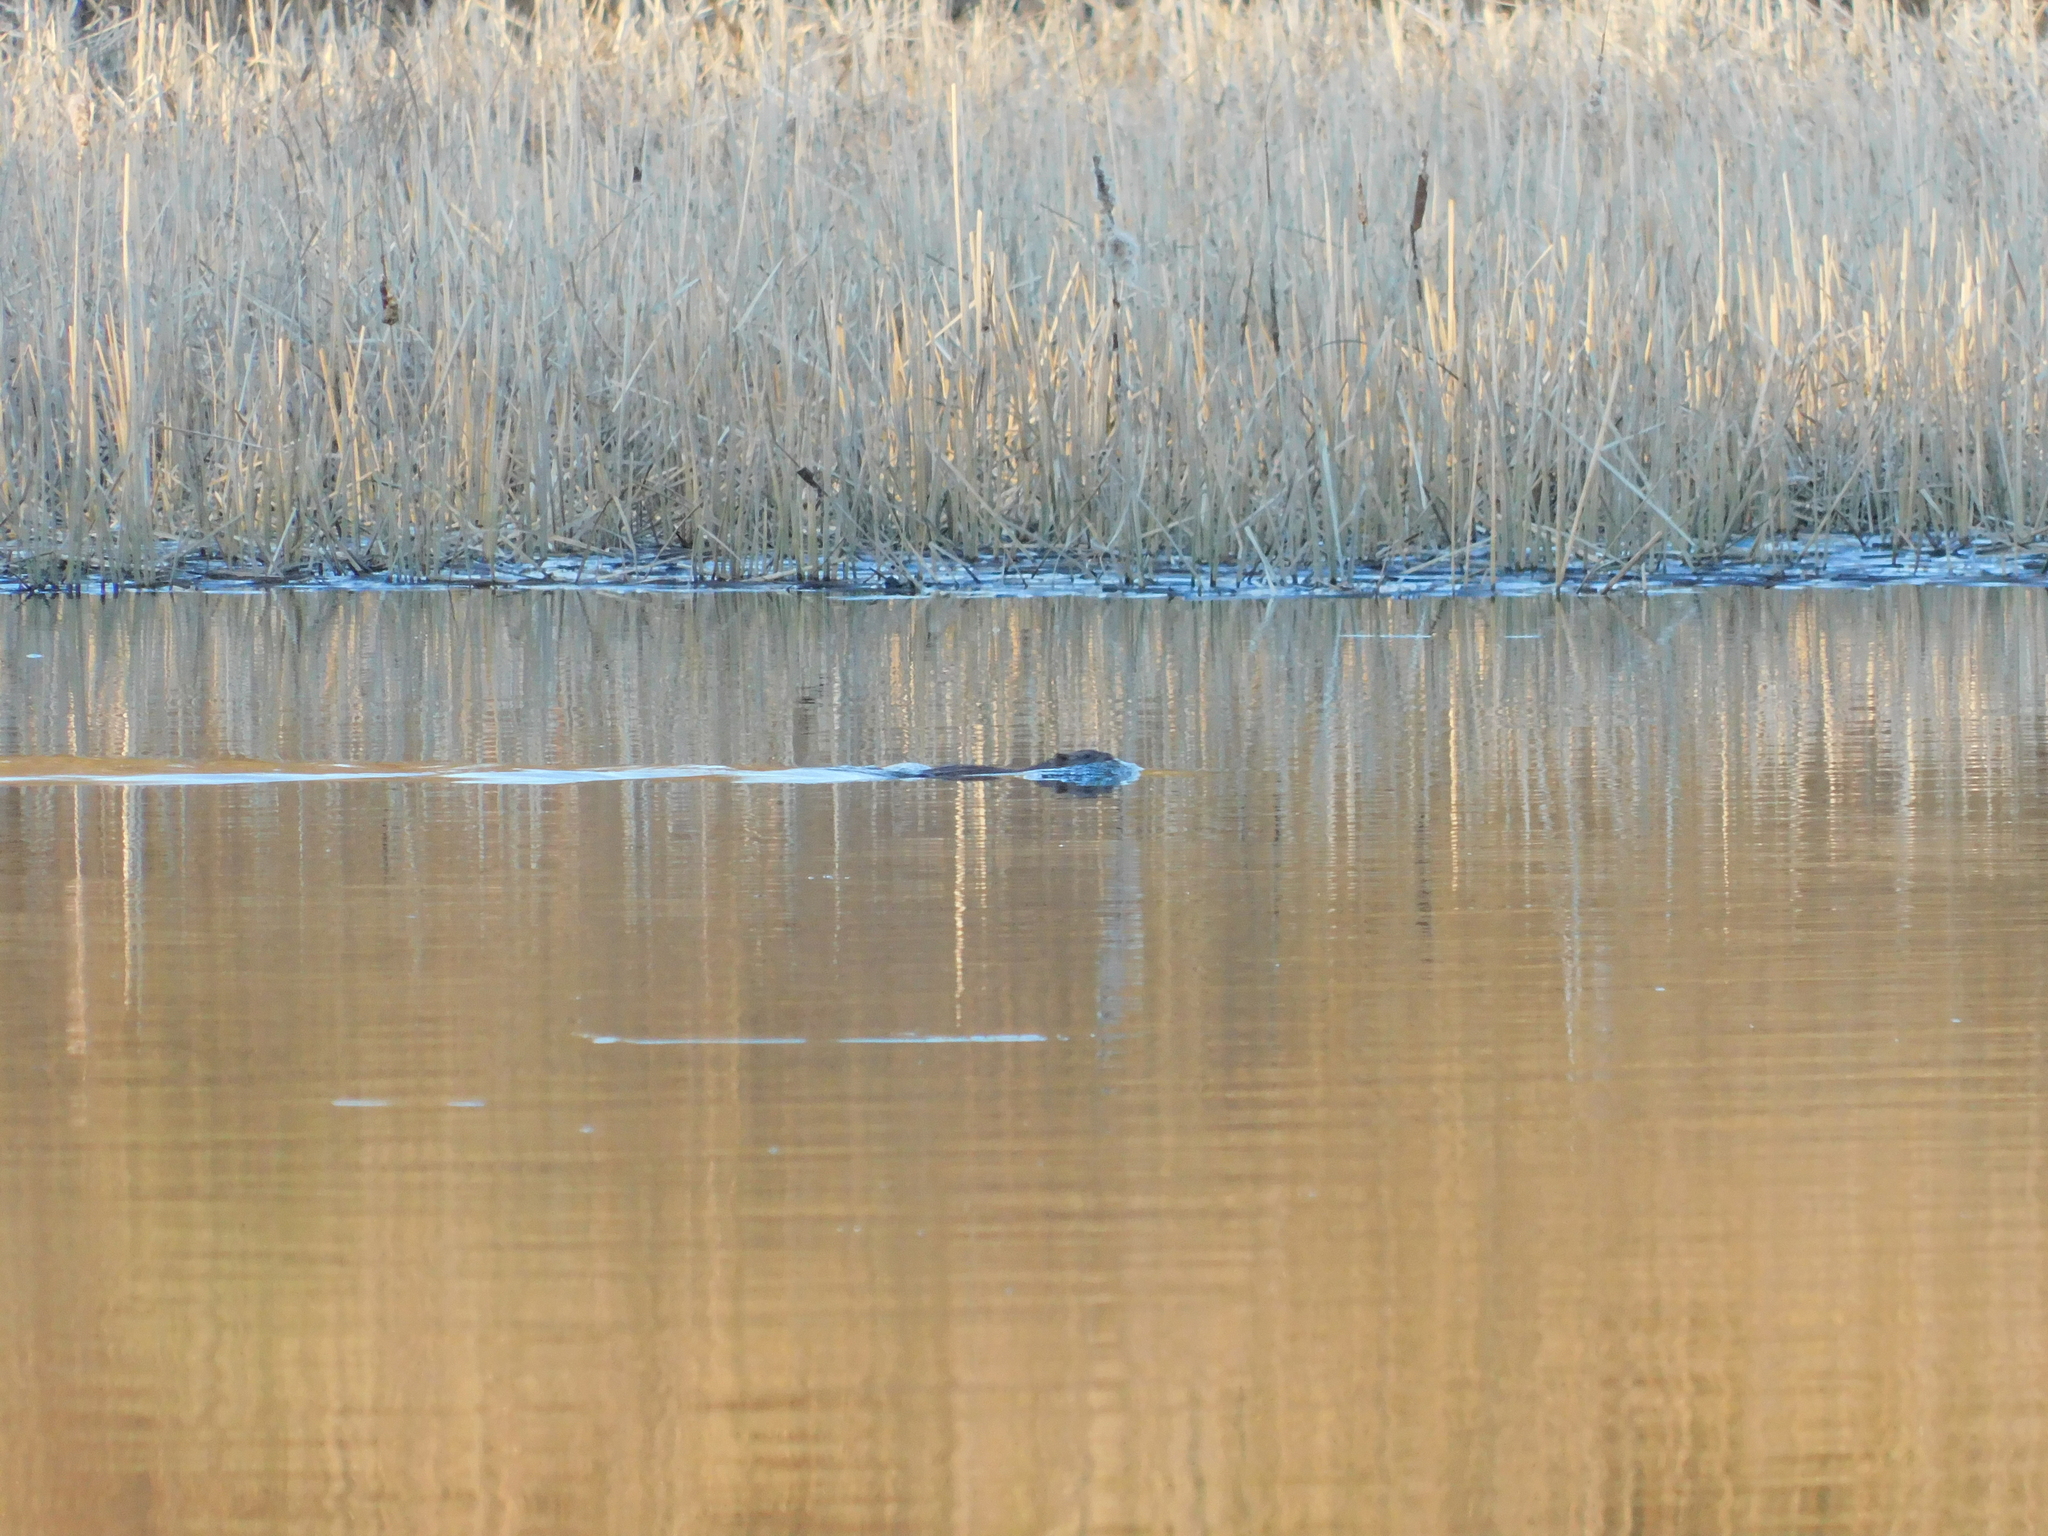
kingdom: Animalia
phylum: Chordata
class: Mammalia
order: Rodentia
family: Cricetidae
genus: Ondatra
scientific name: Ondatra zibethicus
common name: Muskrat
